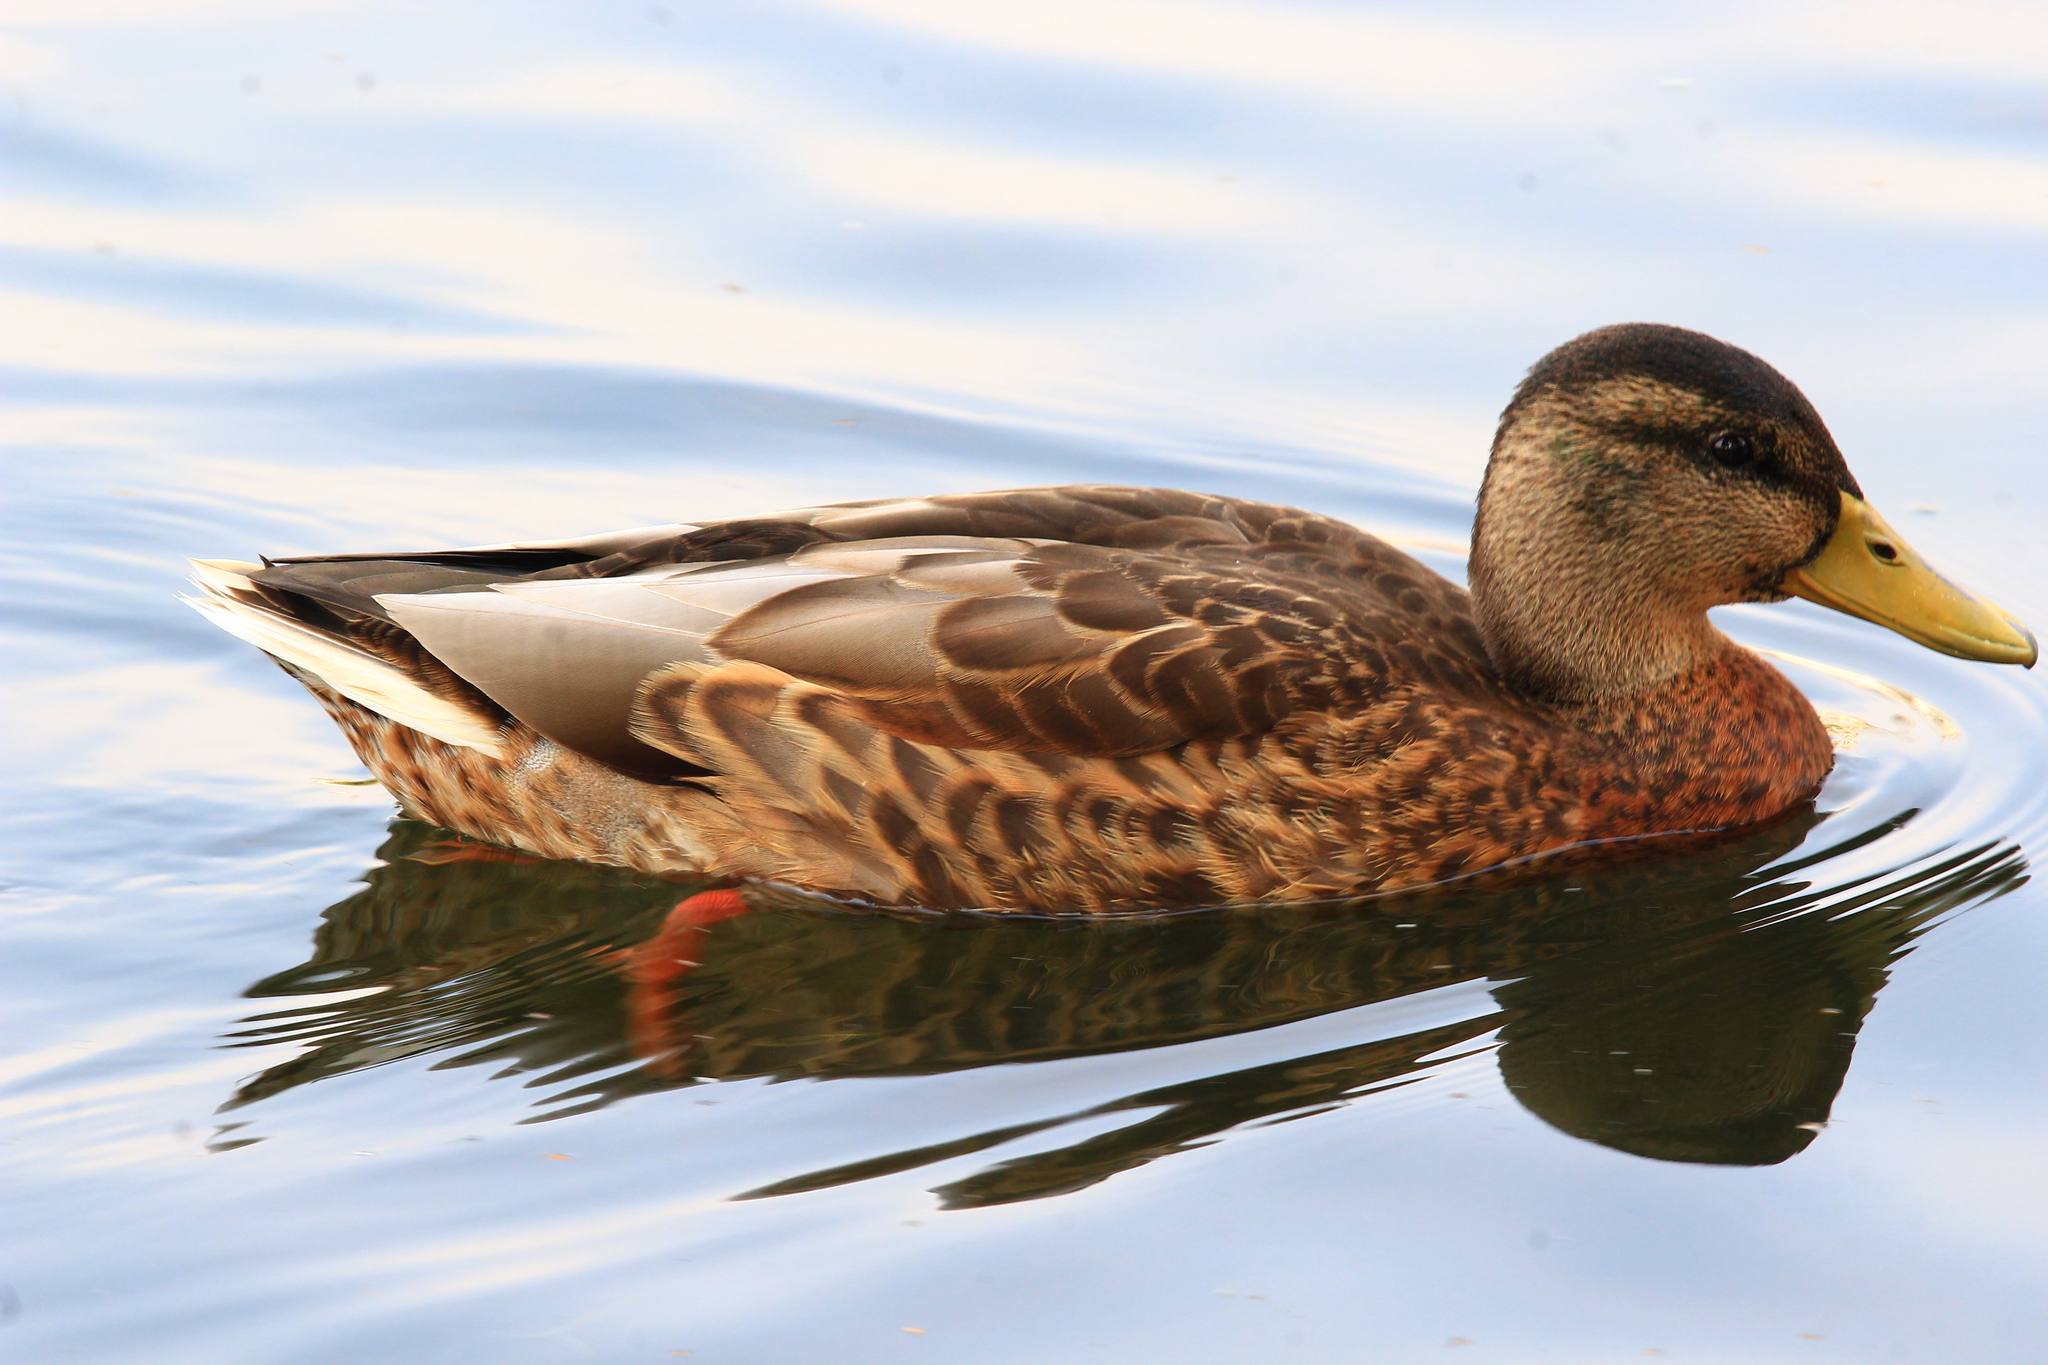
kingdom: Animalia
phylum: Chordata
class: Aves
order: Anseriformes
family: Anatidae
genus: Anas
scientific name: Anas platyrhynchos
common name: Mallard
